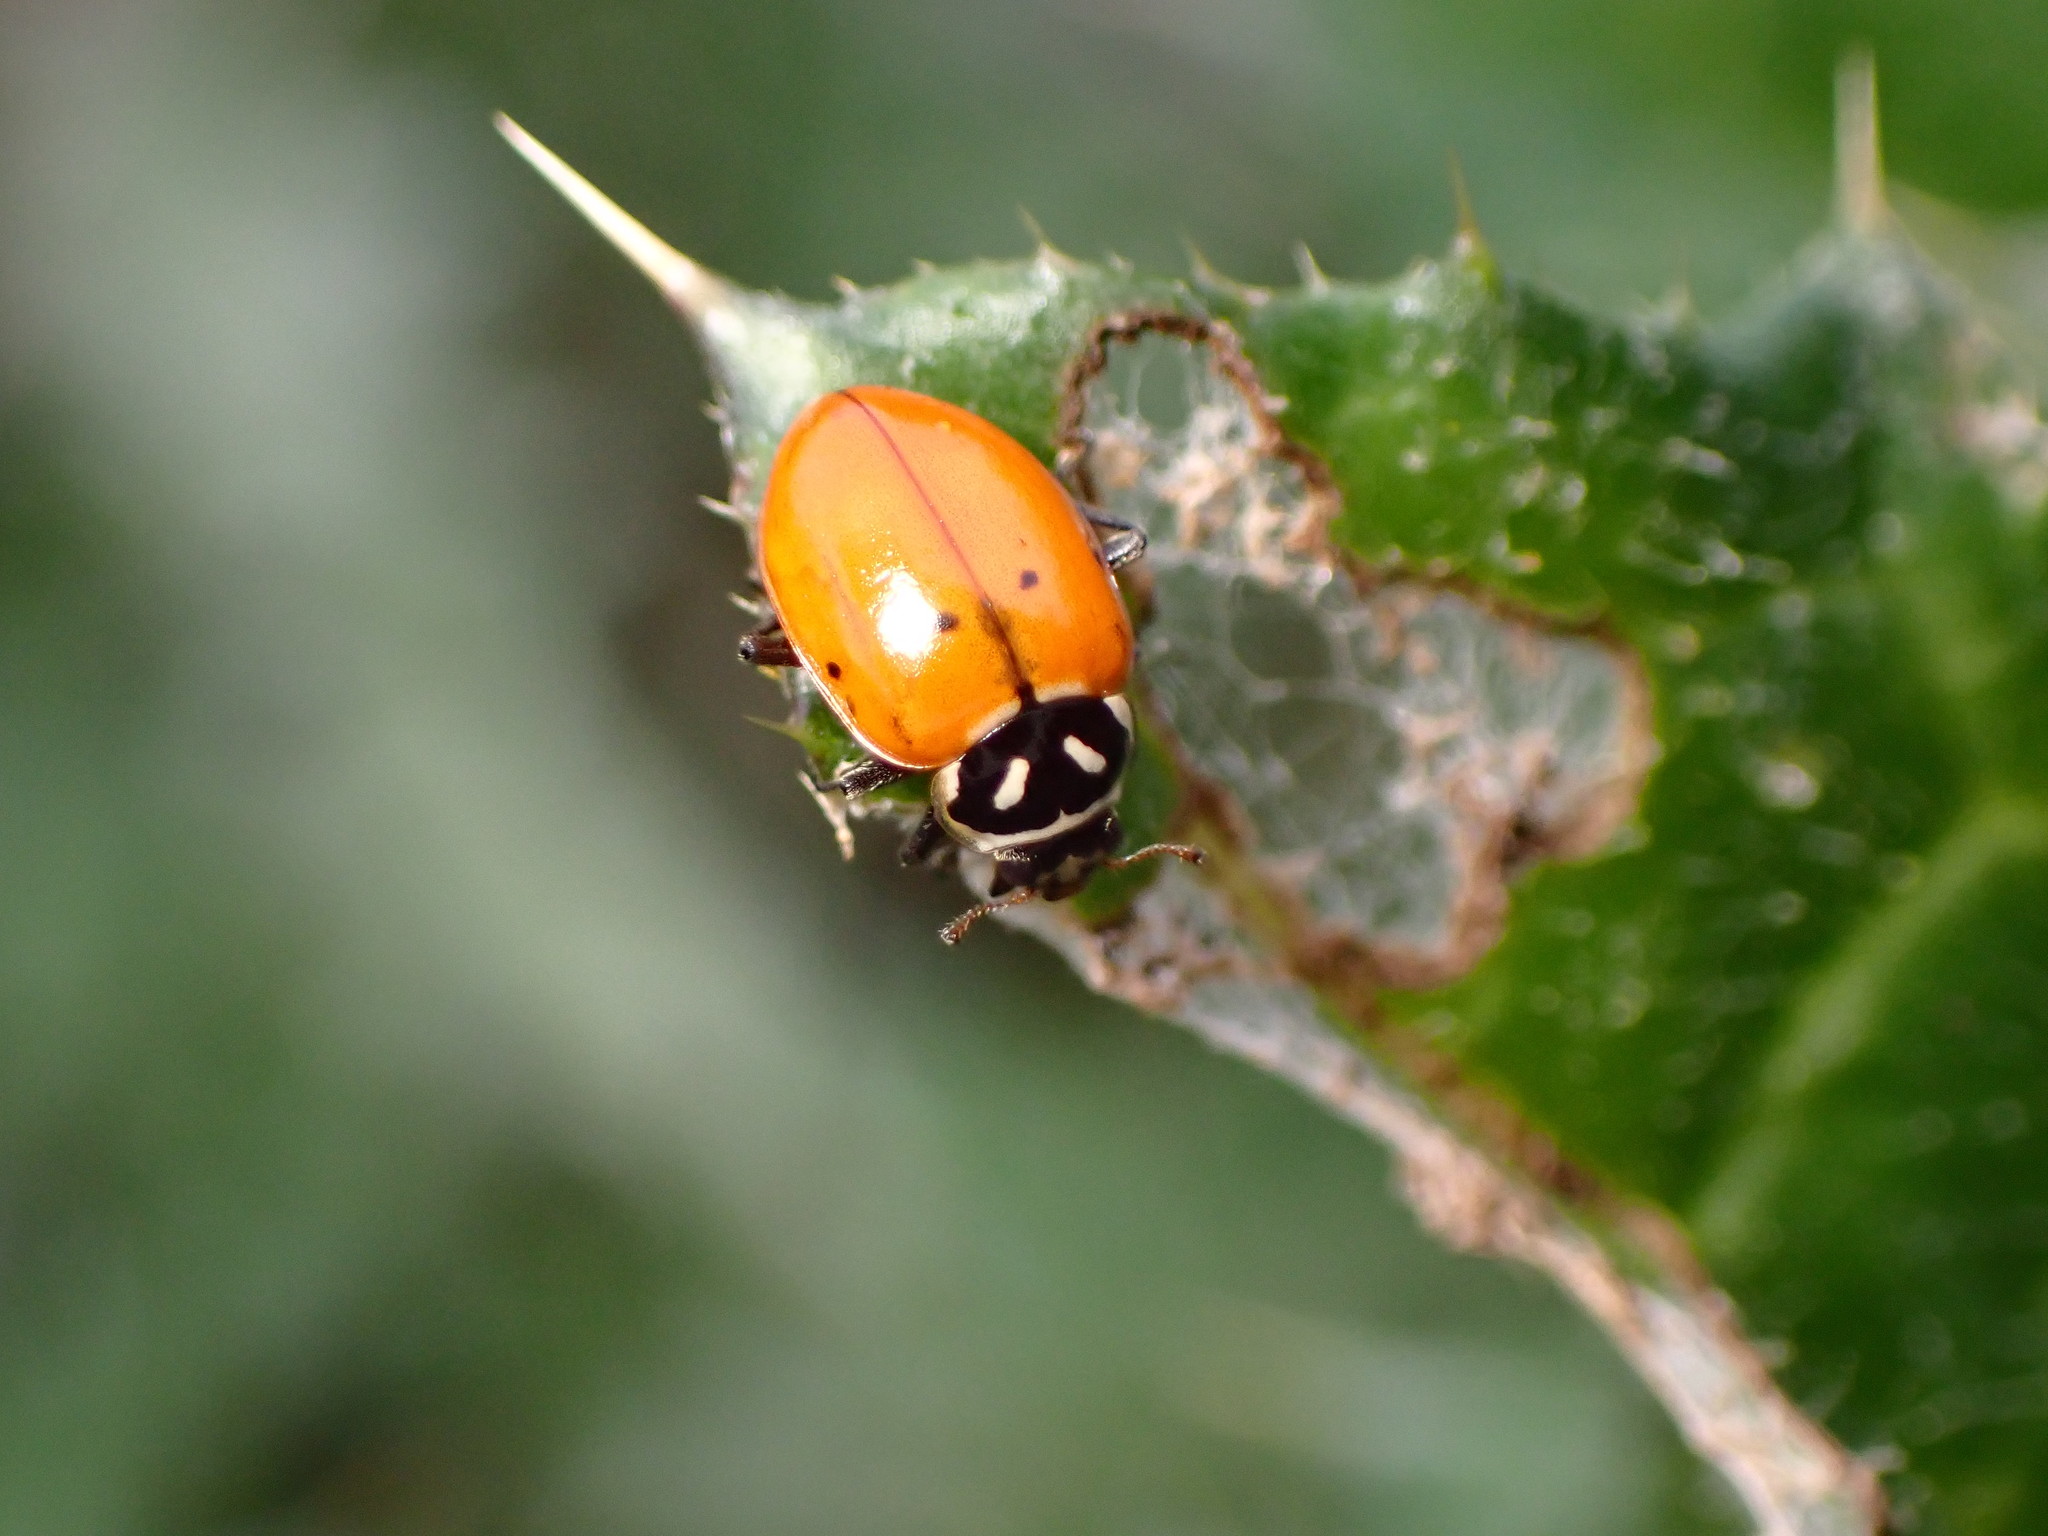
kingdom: Animalia
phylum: Arthropoda
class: Insecta
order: Coleoptera
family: Coccinellidae
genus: Hippodamia
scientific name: Hippodamia convergens
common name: Convergent lady beetle
